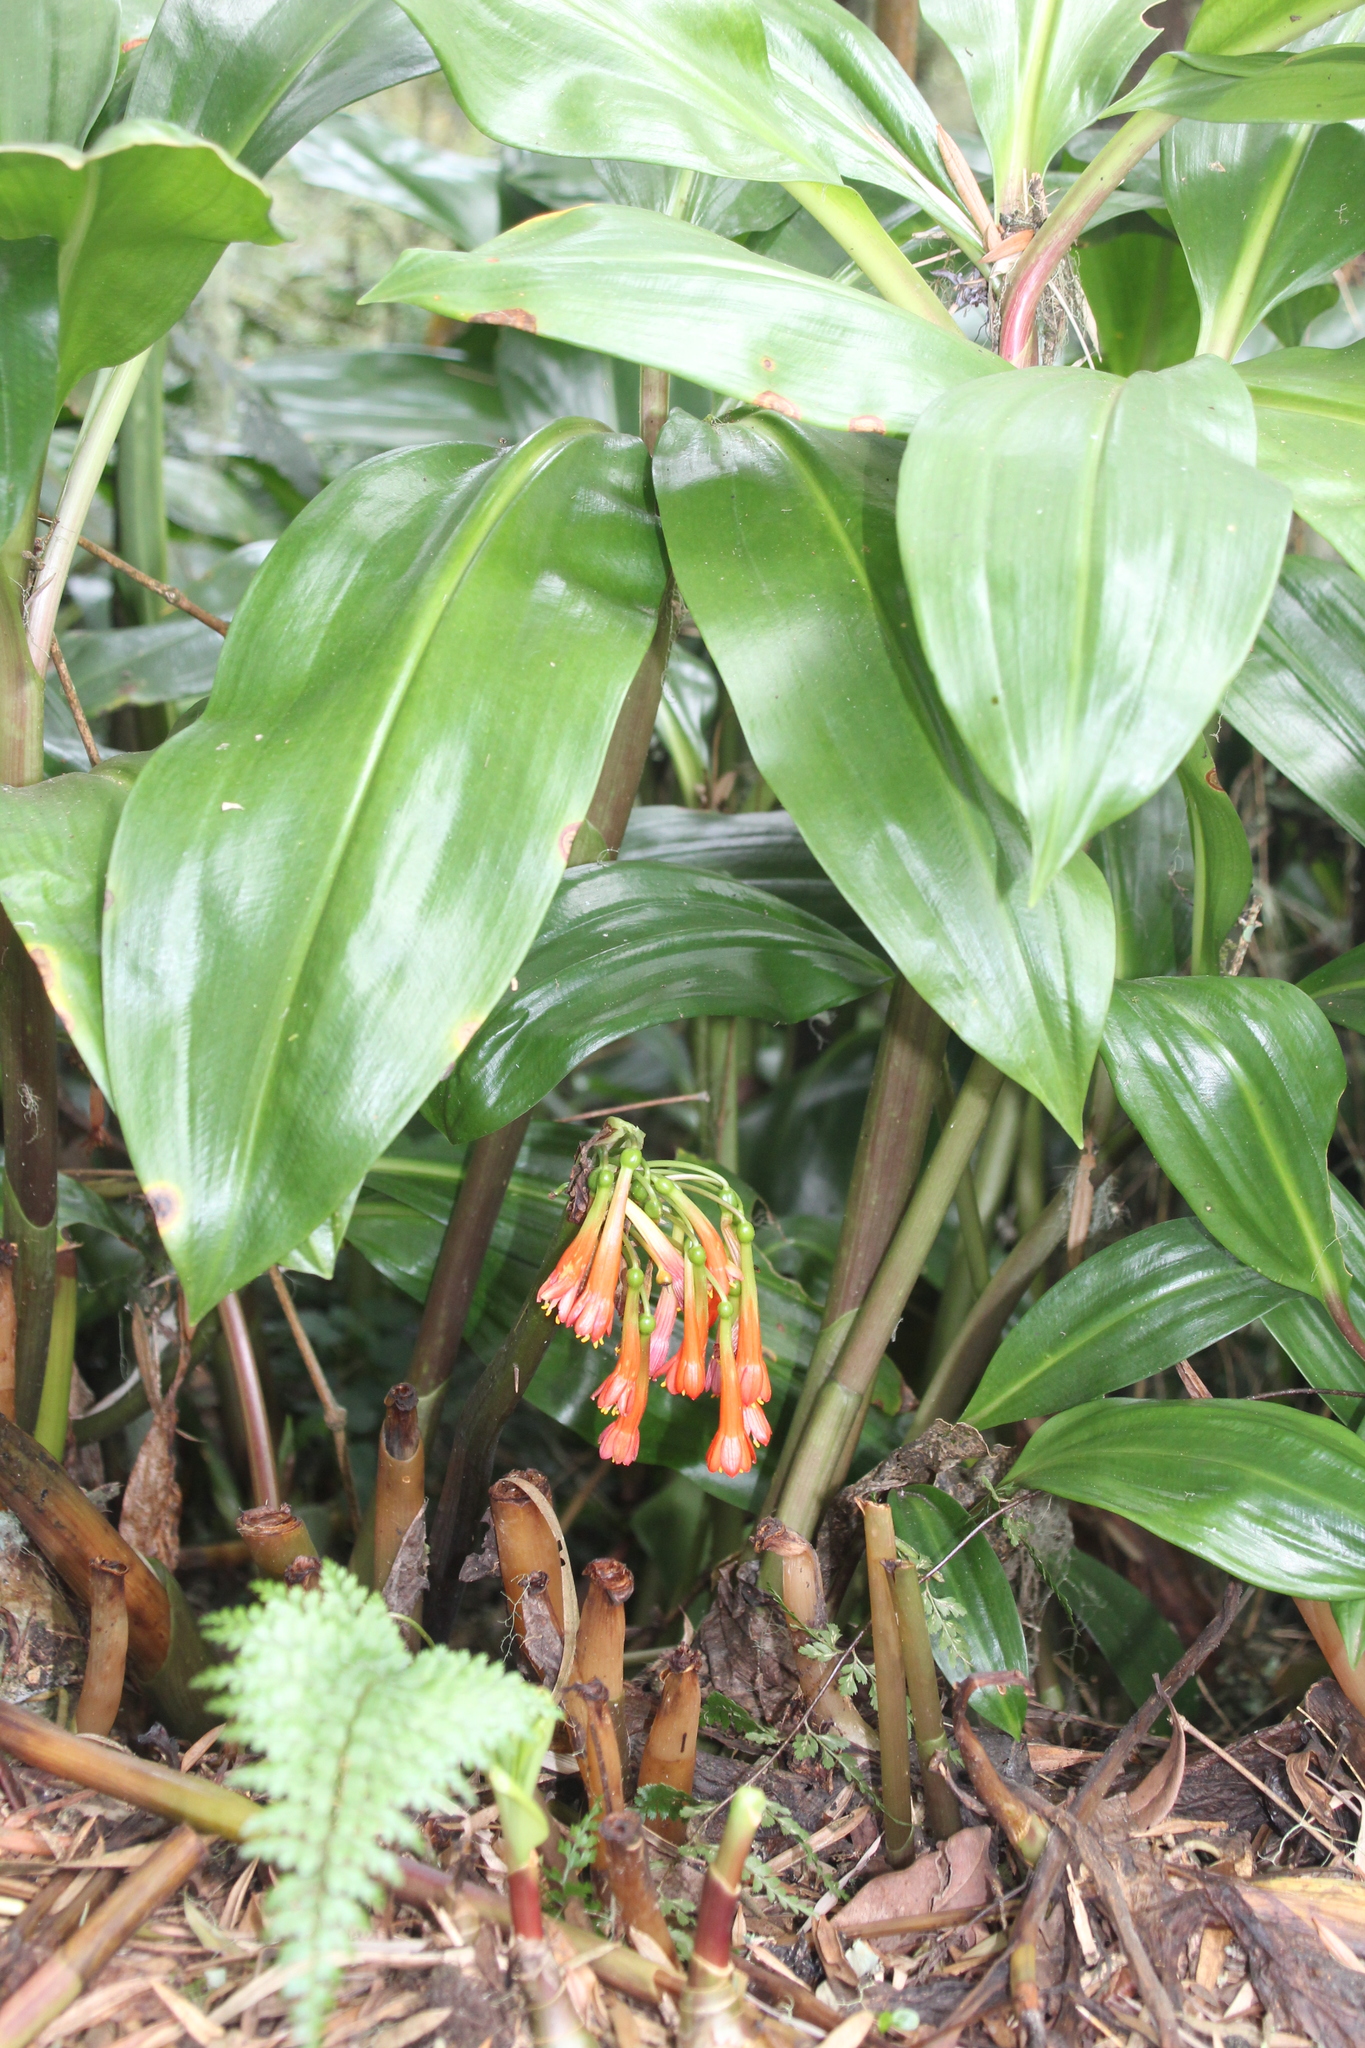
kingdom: Plantae
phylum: Tracheophyta
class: Liliopsida
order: Asparagales
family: Amaryllidaceae
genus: Scadoxus
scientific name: Scadoxus cyrtanthiflorus
